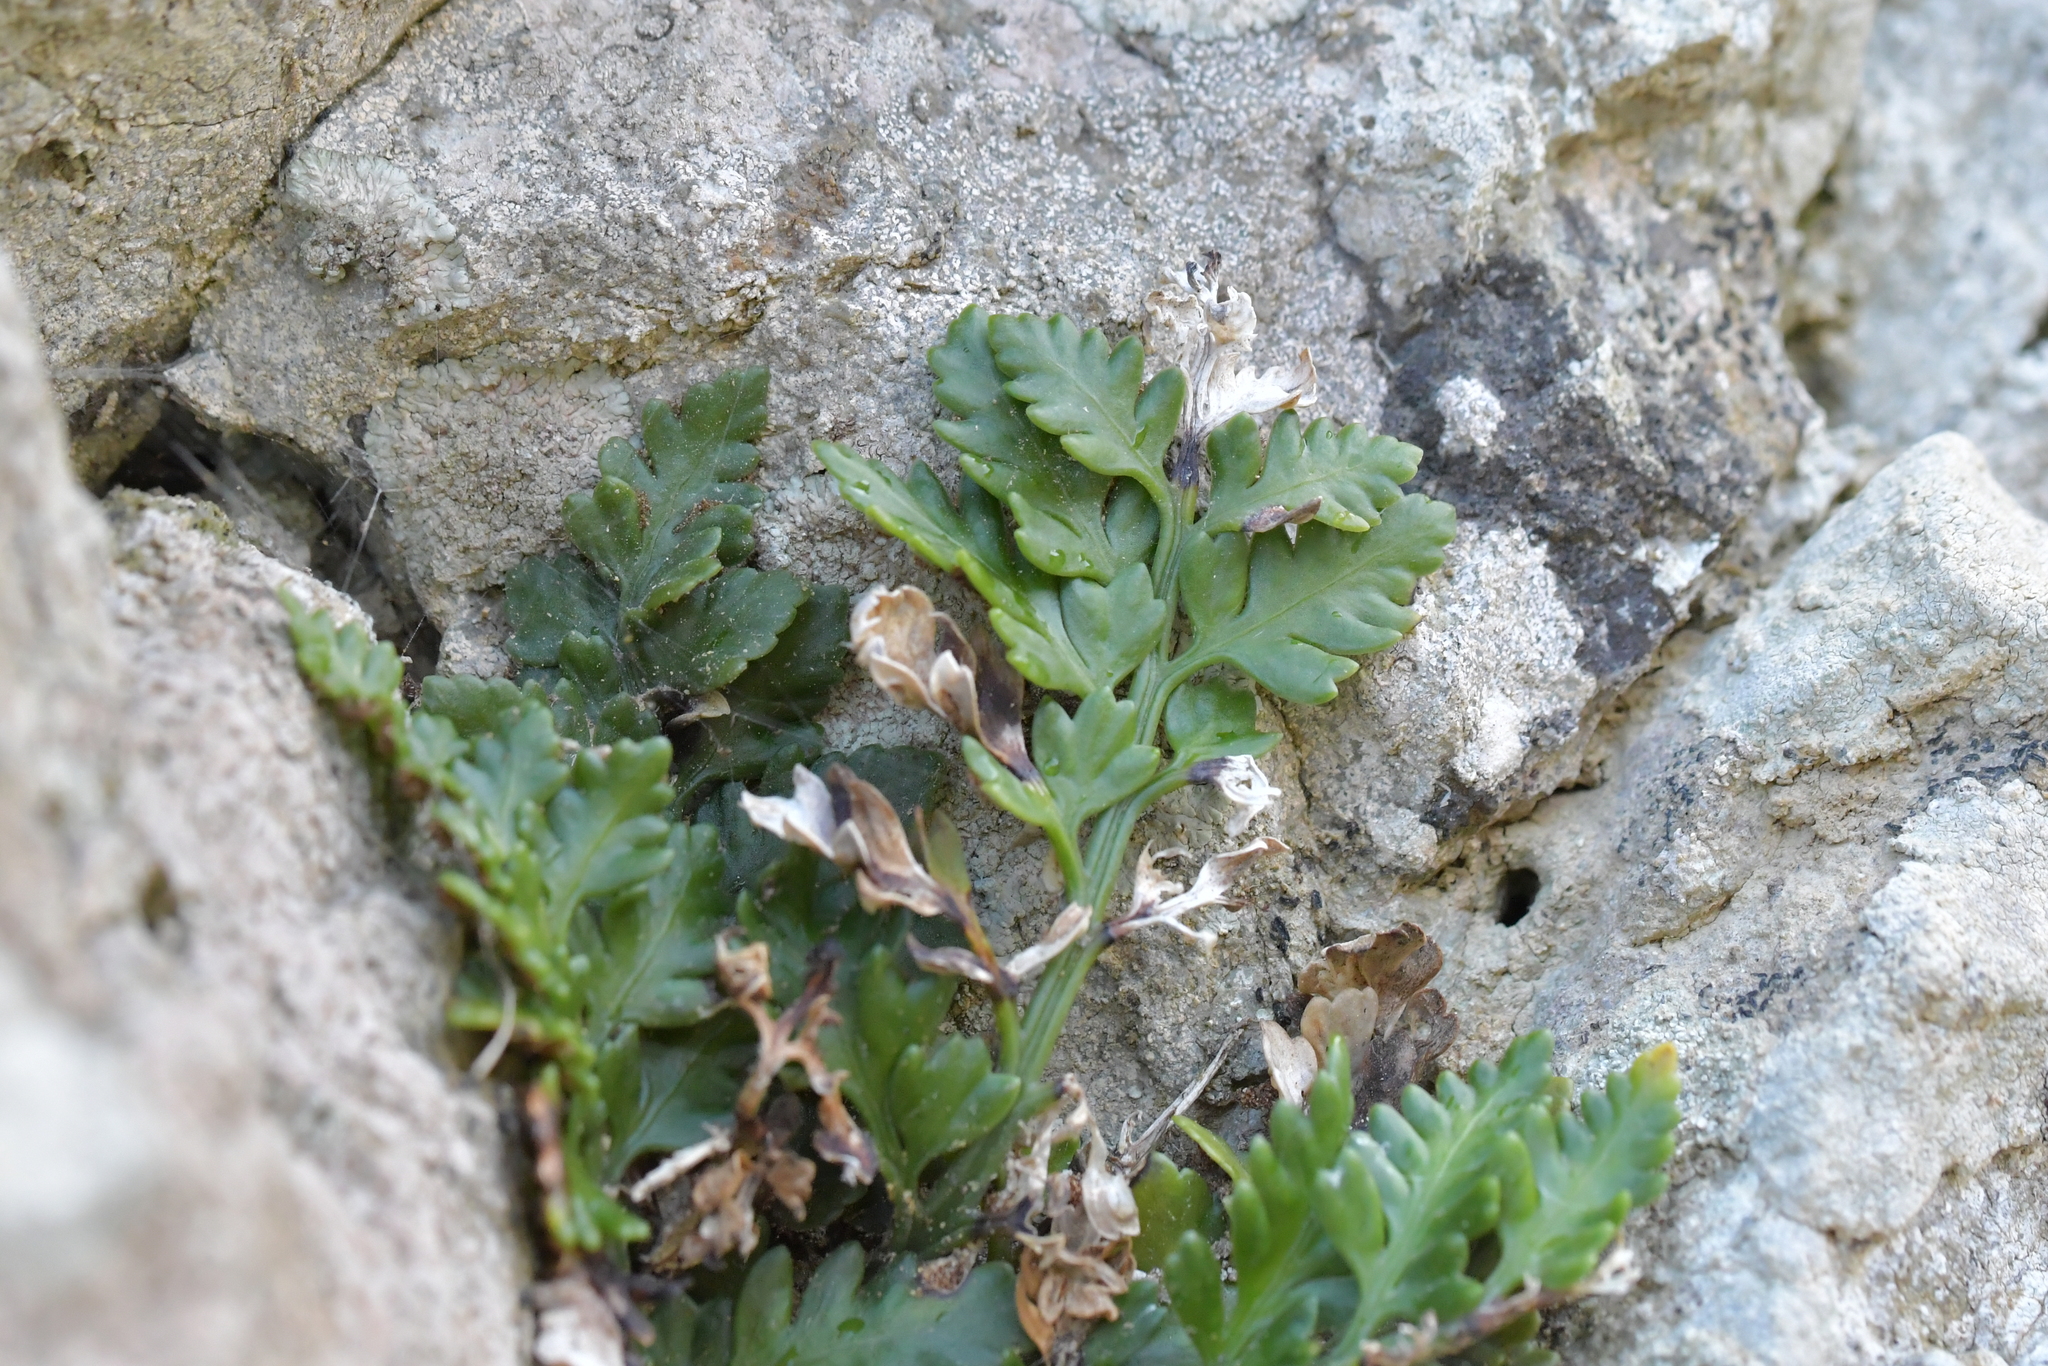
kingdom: Plantae
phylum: Tracheophyta
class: Polypodiopsida
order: Polypodiales
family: Aspleniaceae
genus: Asplenium
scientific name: Asplenium appendiculatum
